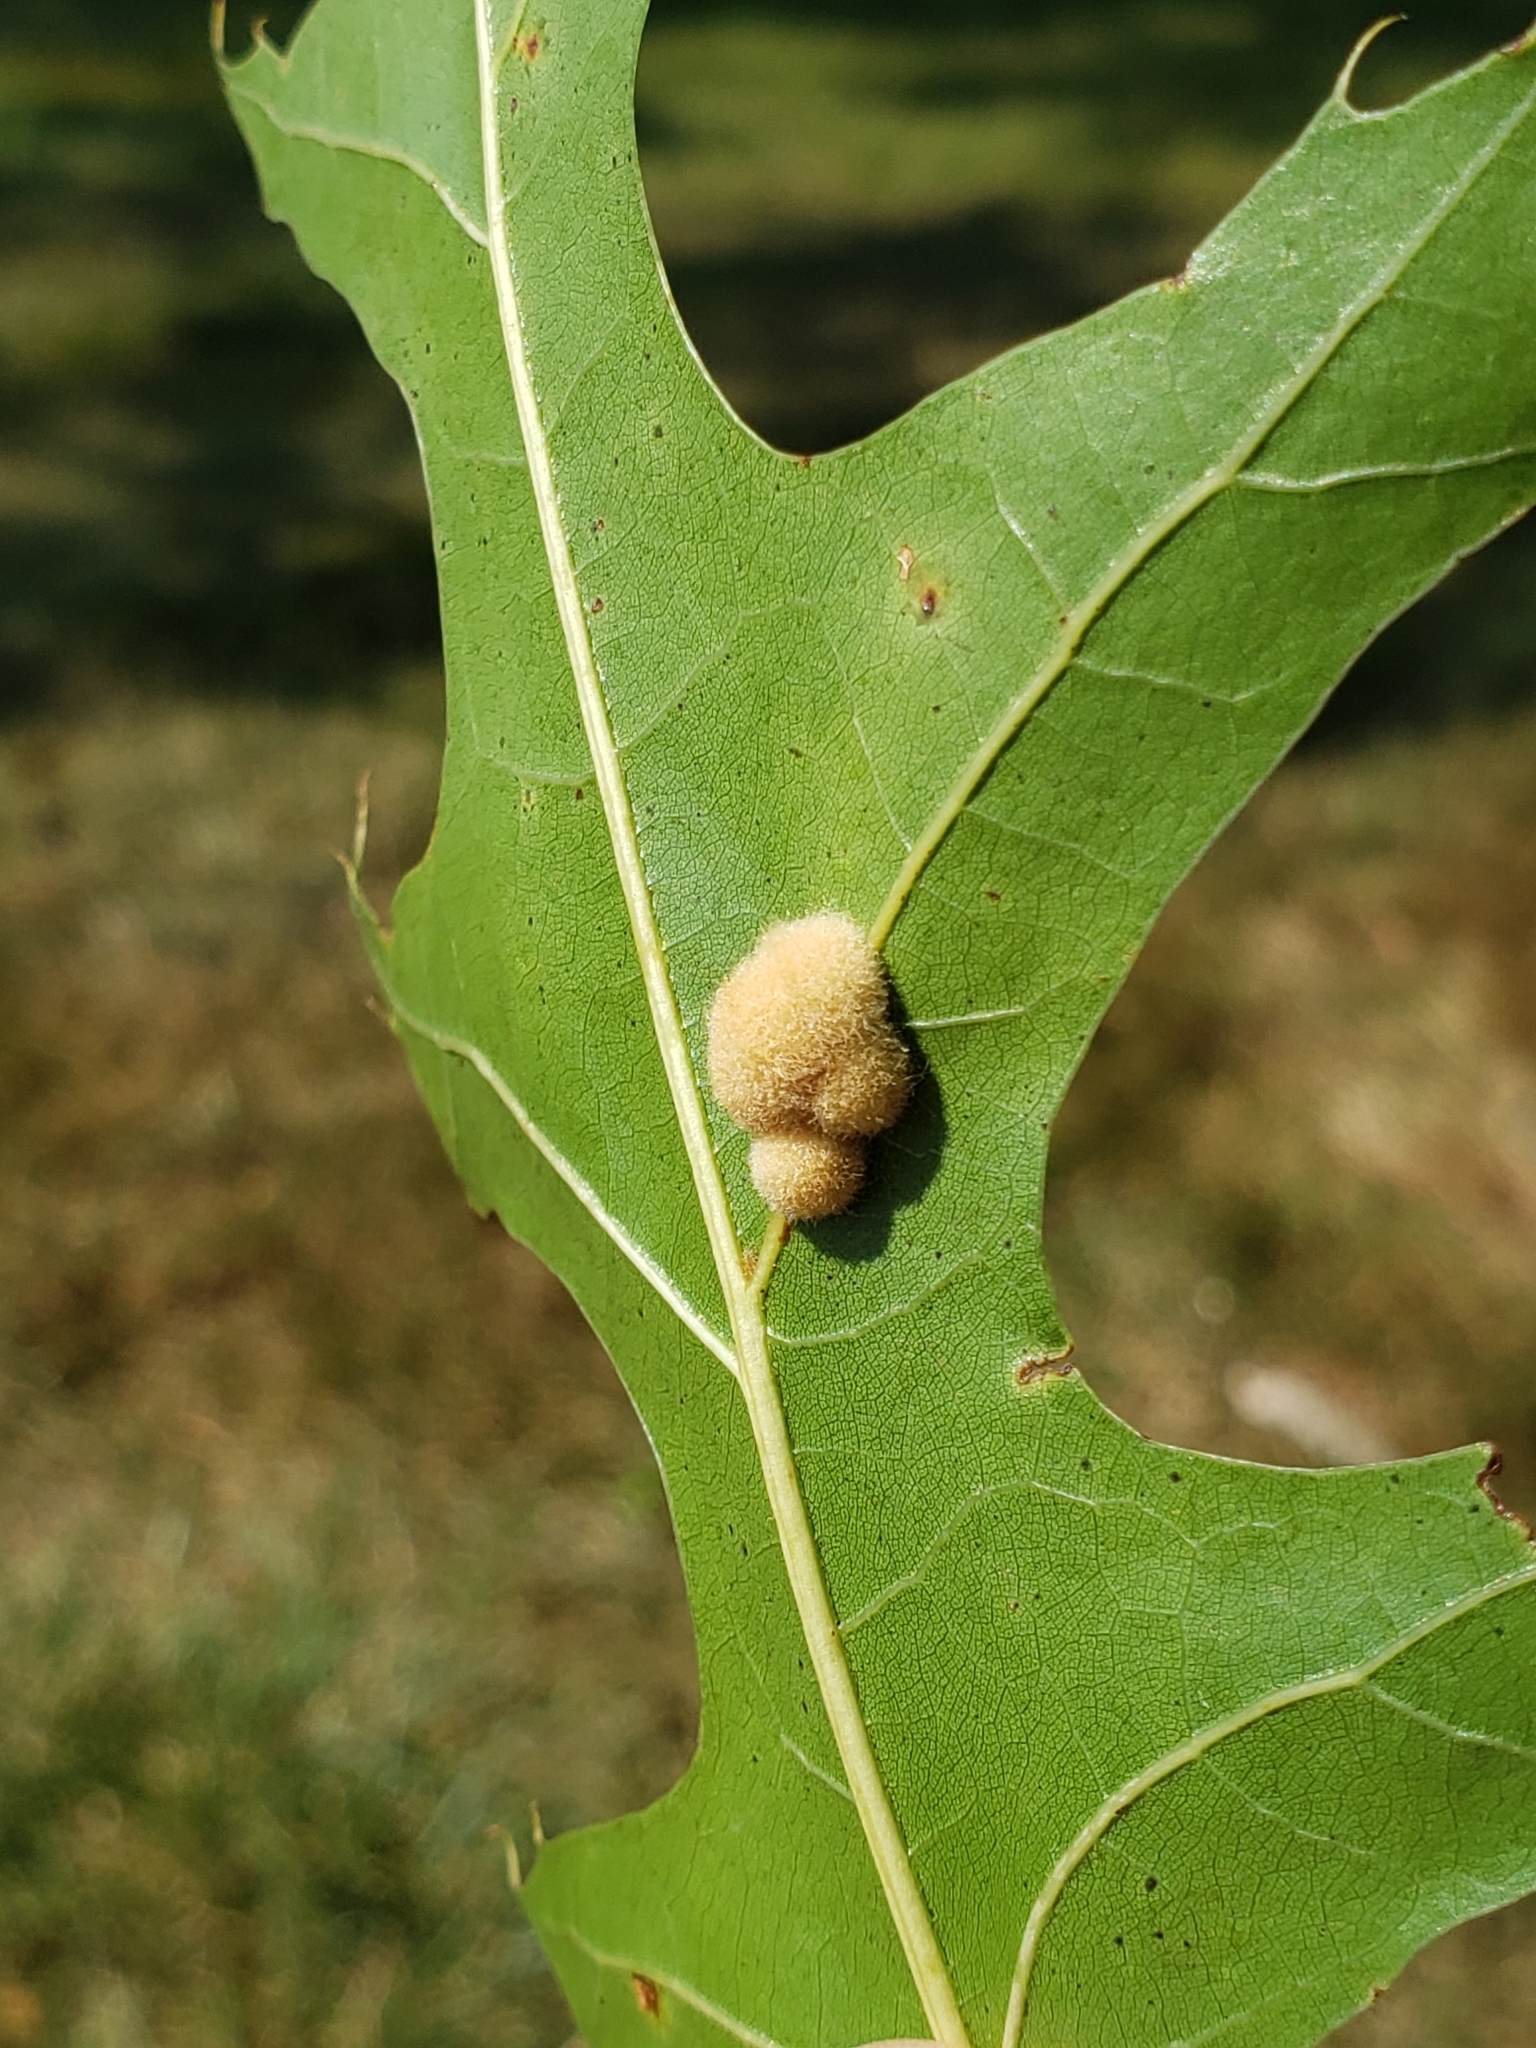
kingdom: Animalia
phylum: Arthropoda
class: Insecta
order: Hymenoptera
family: Cynipidae
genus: Callirhytis
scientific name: Callirhytis
